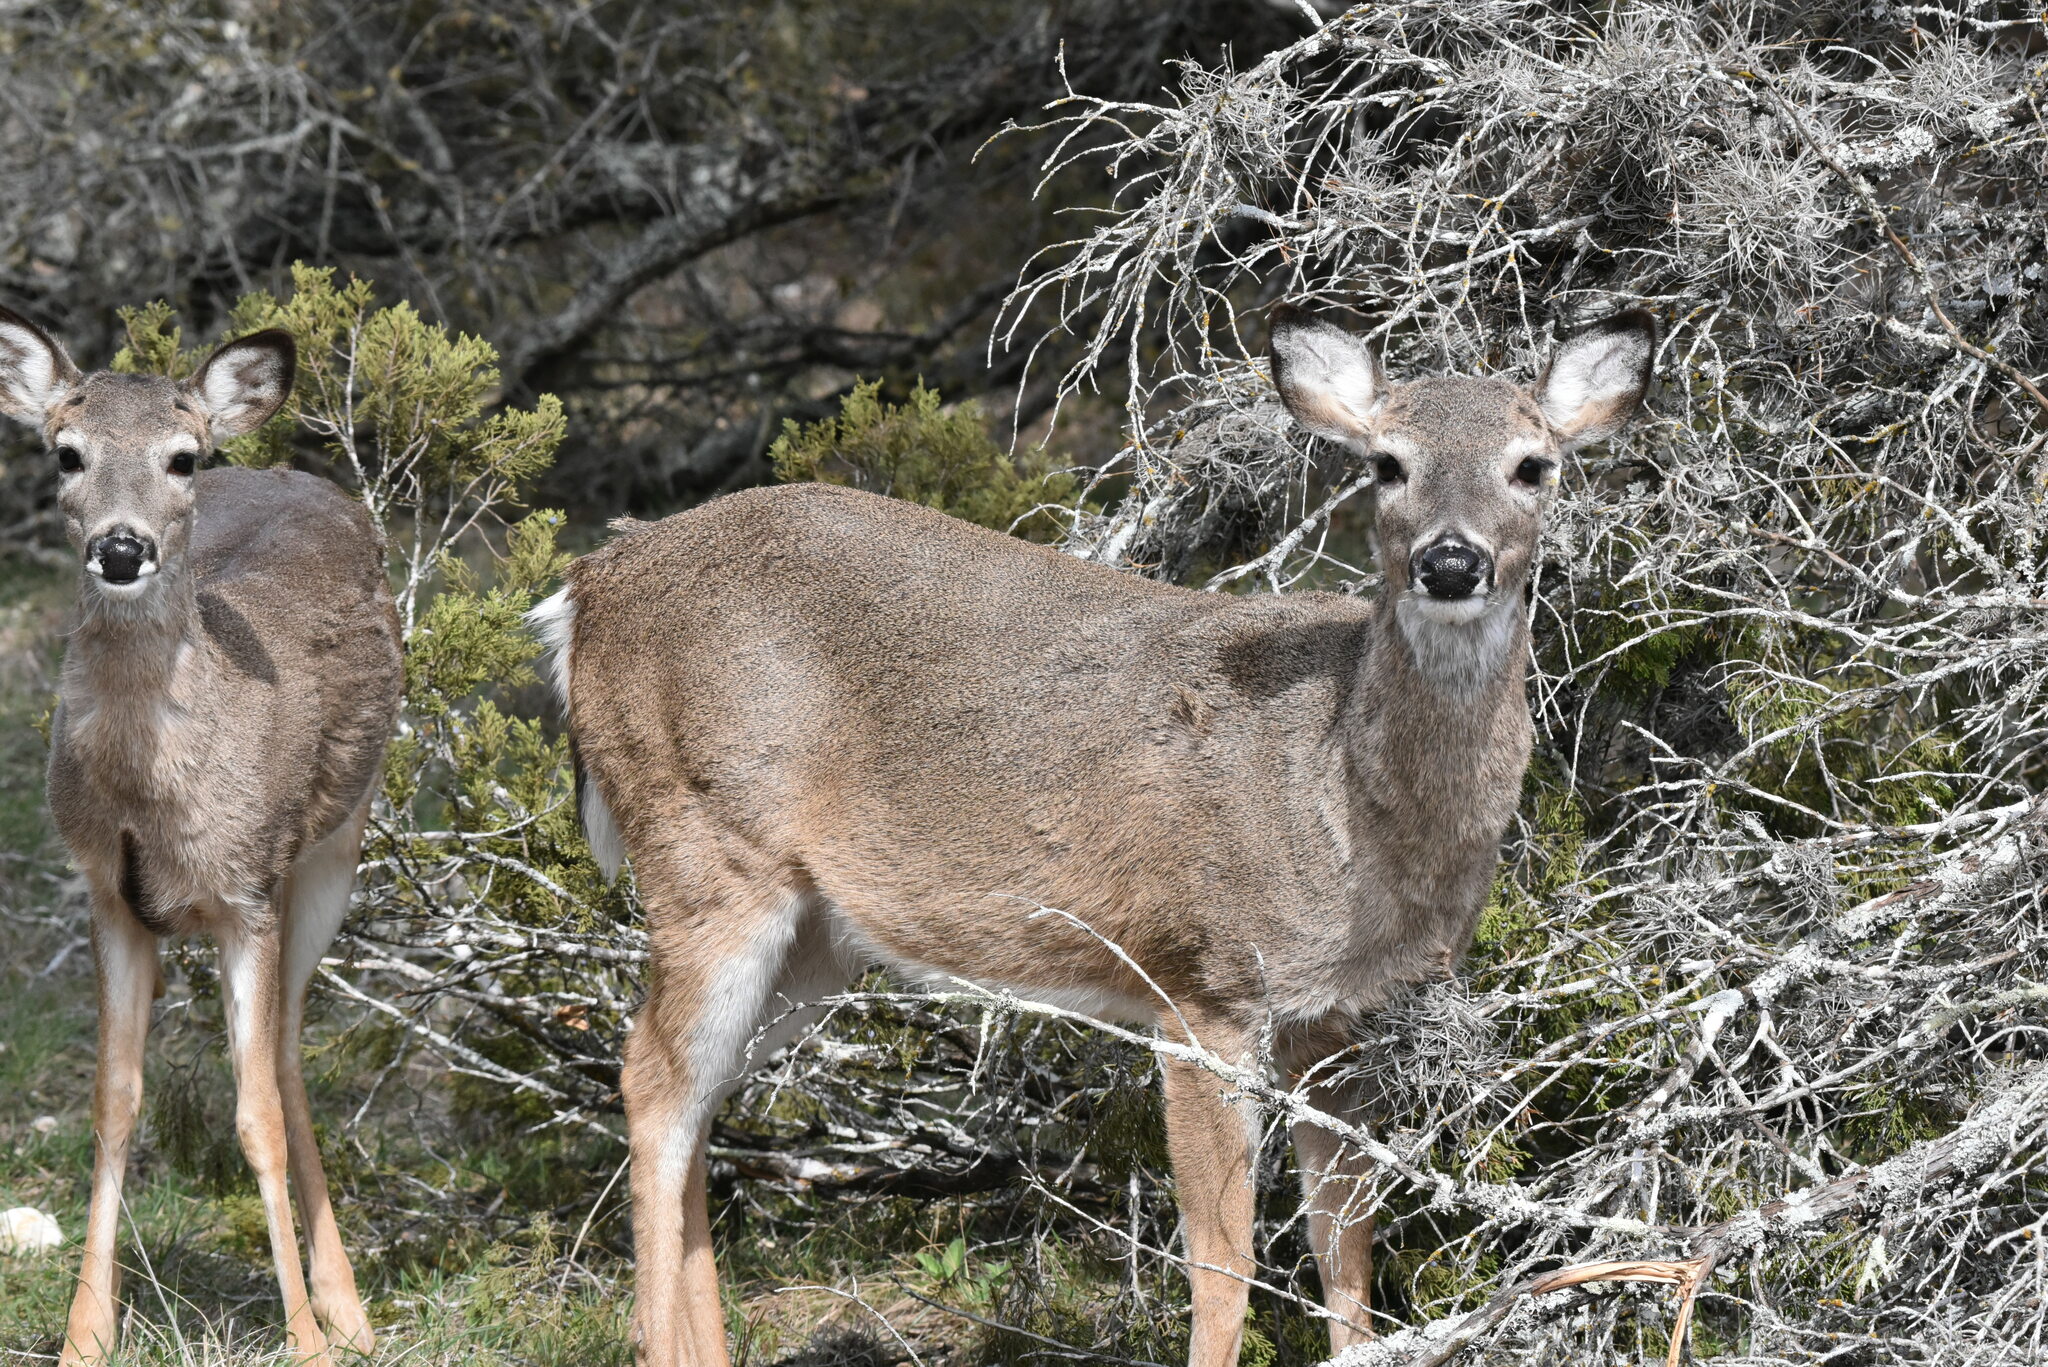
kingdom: Animalia
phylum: Chordata
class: Mammalia
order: Artiodactyla
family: Cervidae
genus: Odocoileus
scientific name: Odocoileus virginianus
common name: White-tailed deer
